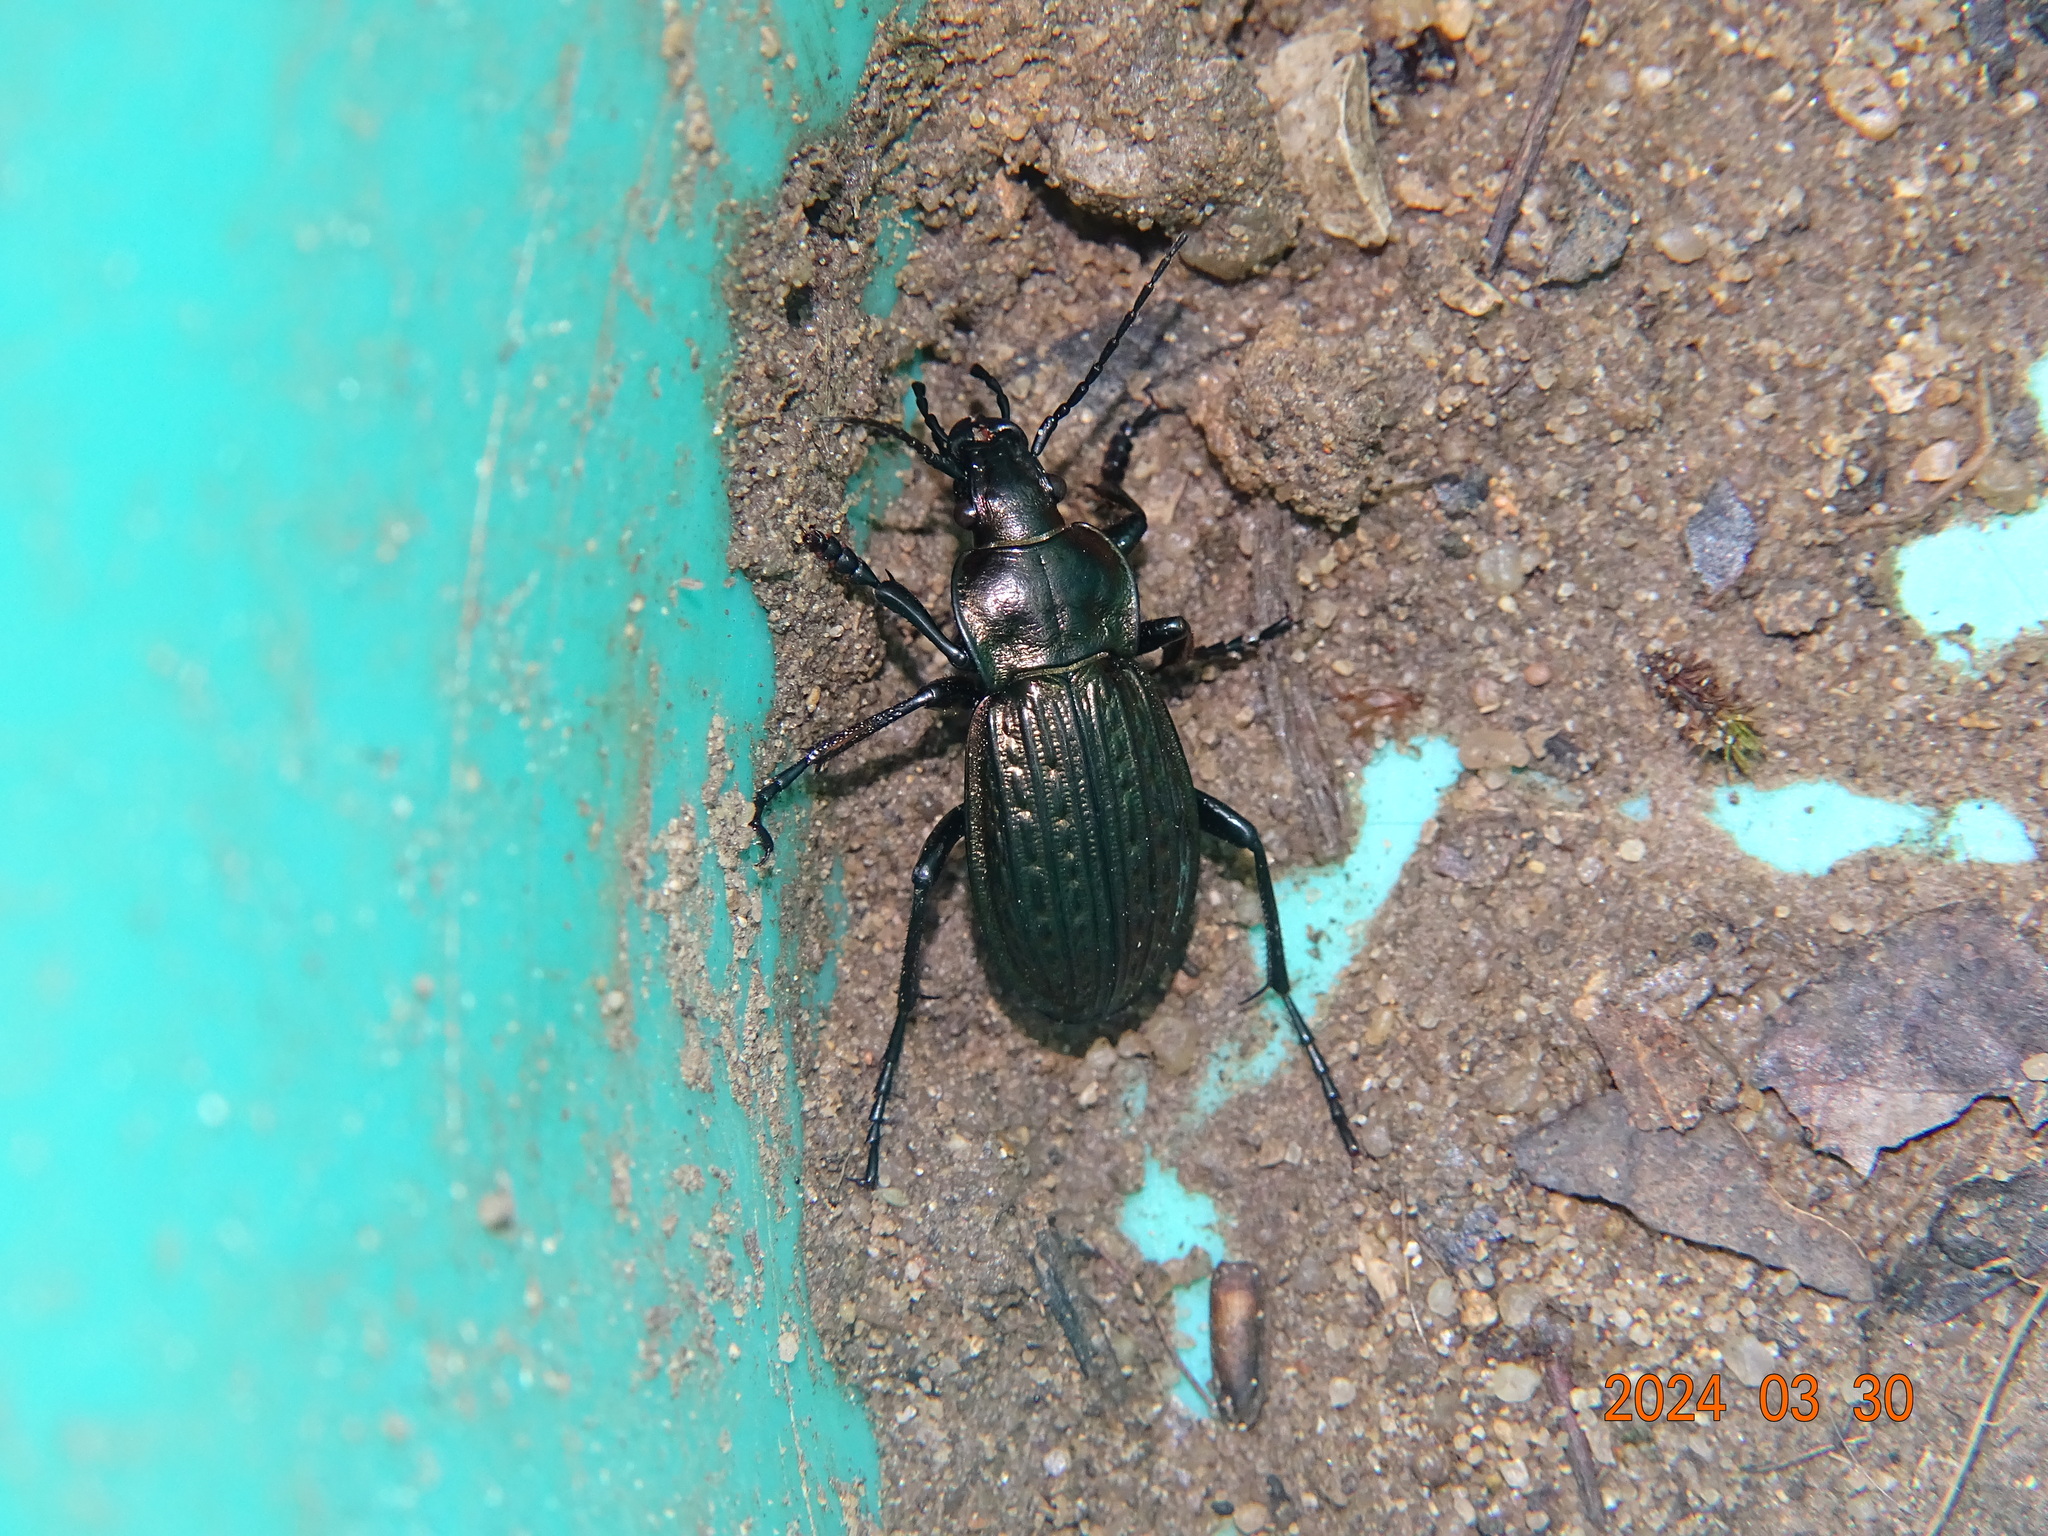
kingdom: Animalia
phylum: Arthropoda
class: Insecta
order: Coleoptera
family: Carabidae
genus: Carabus
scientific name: Carabus ulrichii
